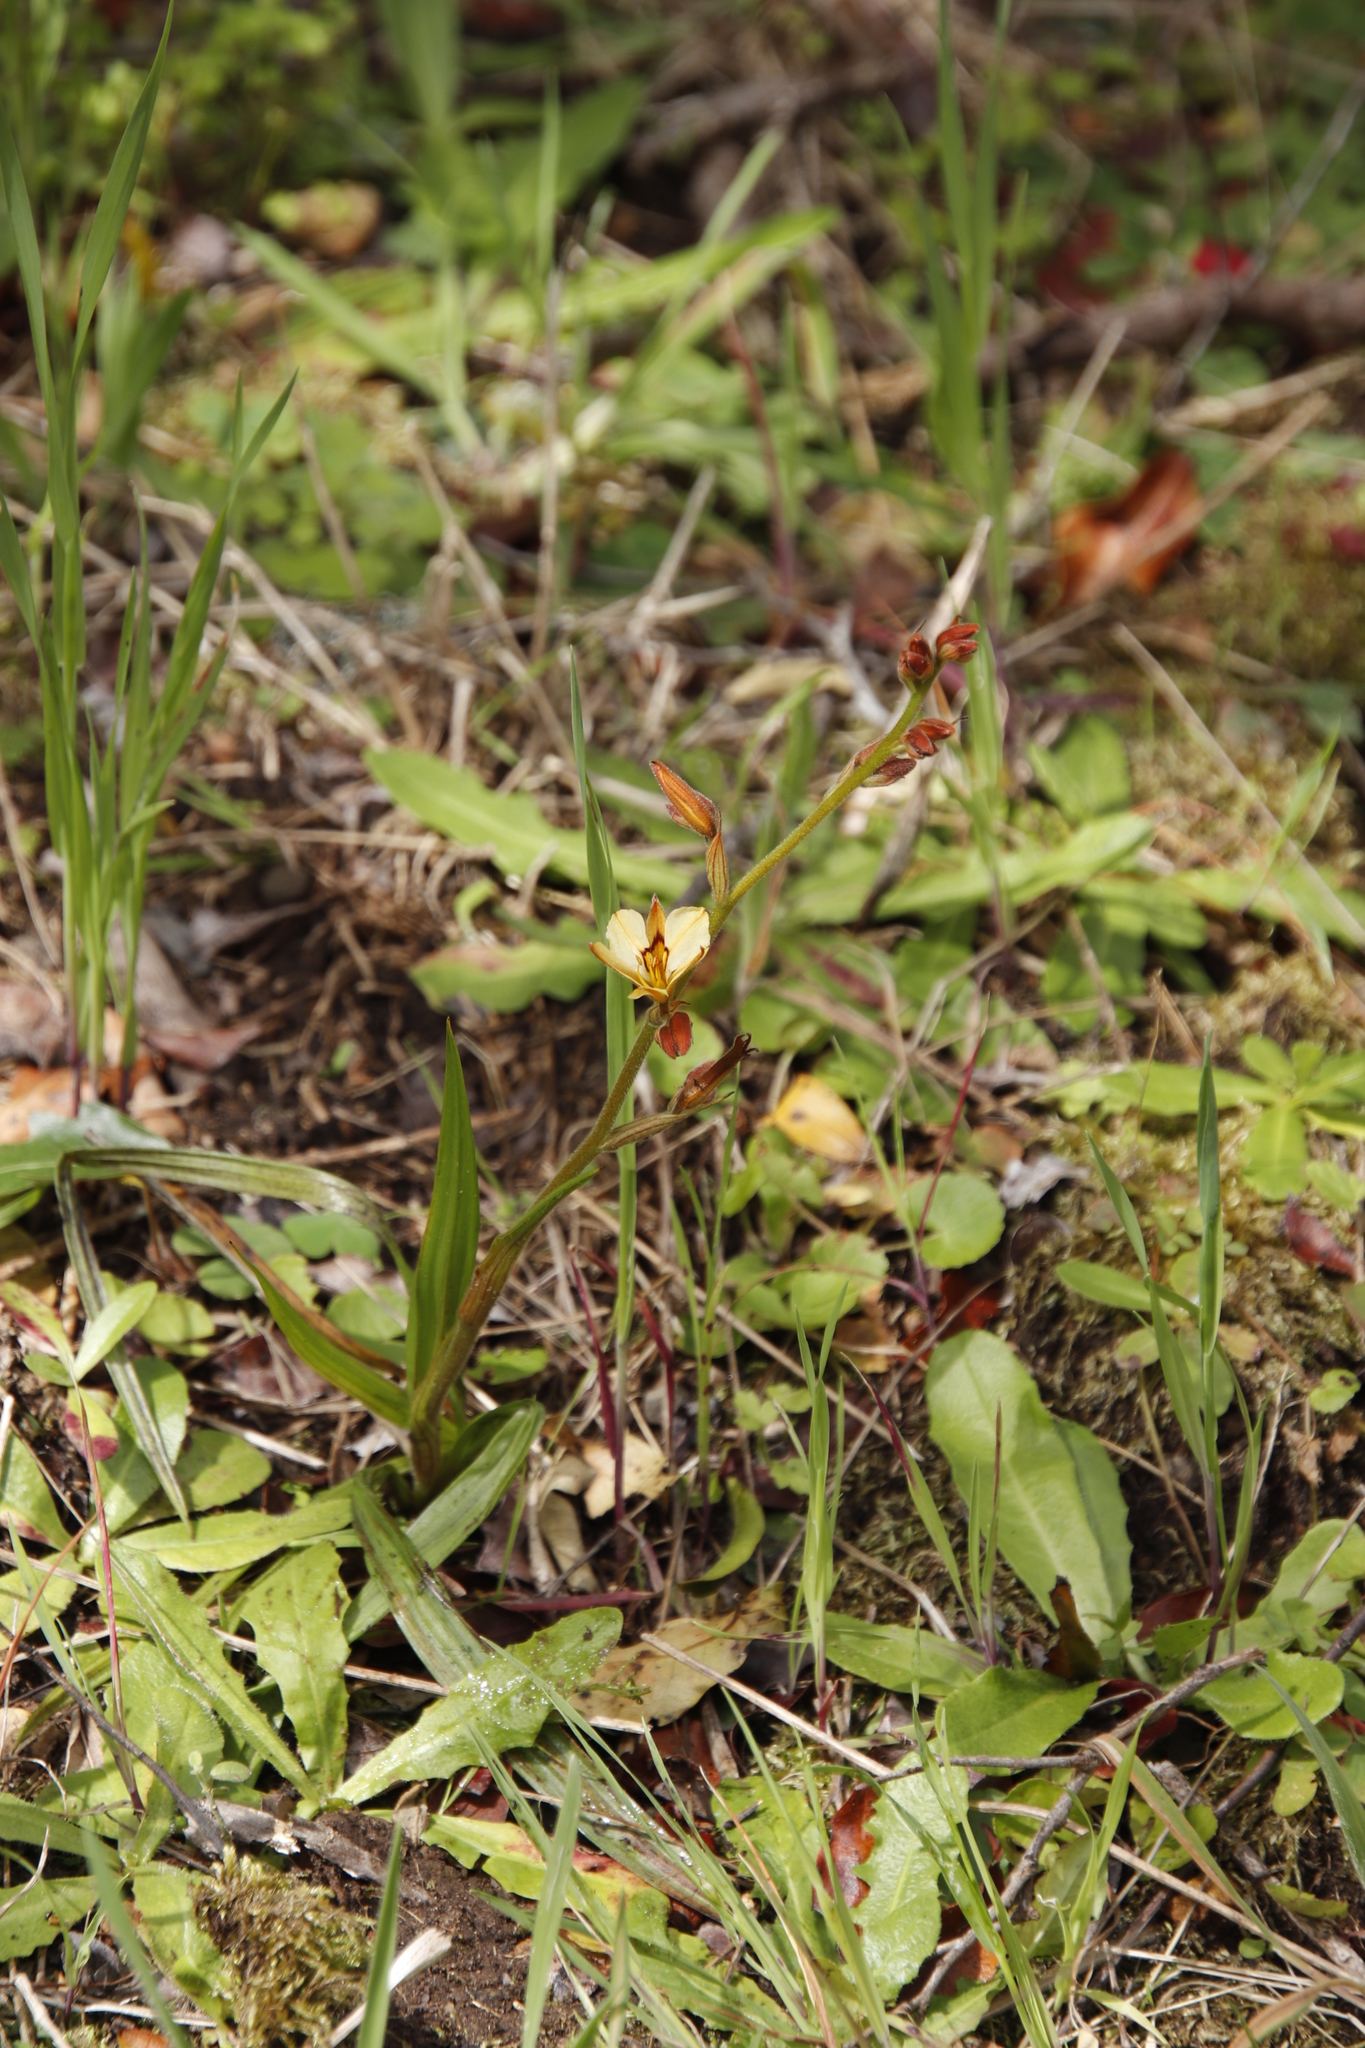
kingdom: Plantae
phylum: Tracheophyta
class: Liliopsida
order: Commelinales
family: Haemodoraceae
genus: Wachendorfia
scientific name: Wachendorfia paniculata
